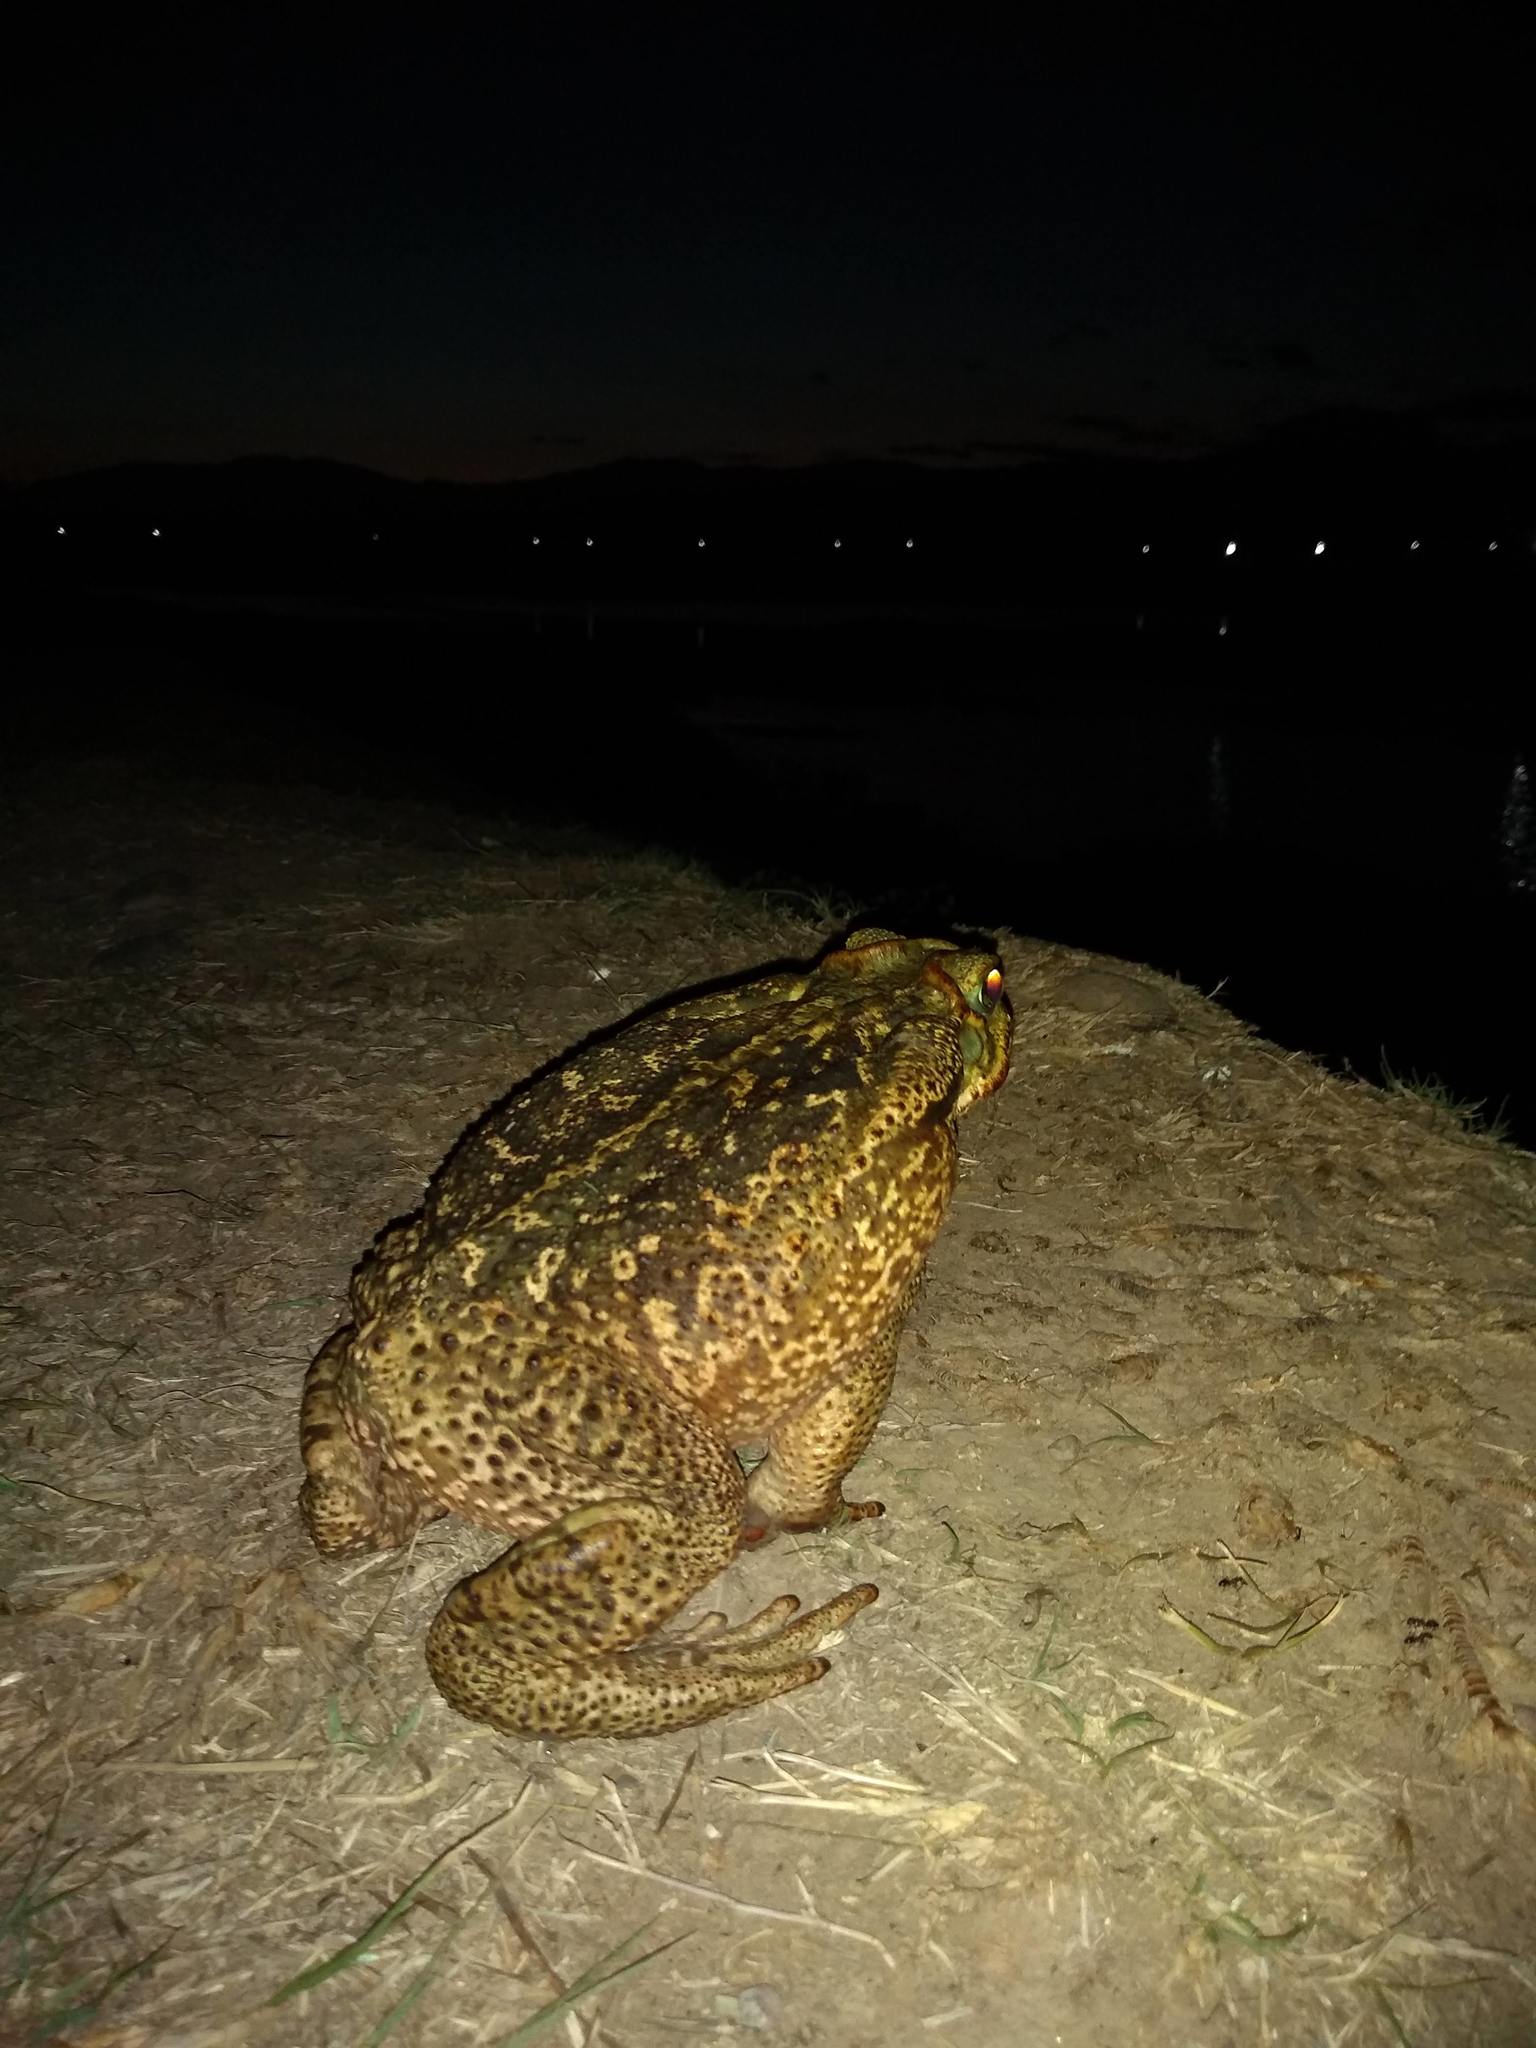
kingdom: Animalia
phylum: Chordata
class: Amphibia
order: Anura
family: Bufonidae
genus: Rhinella
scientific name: Rhinella diptycha
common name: Cope's toad
